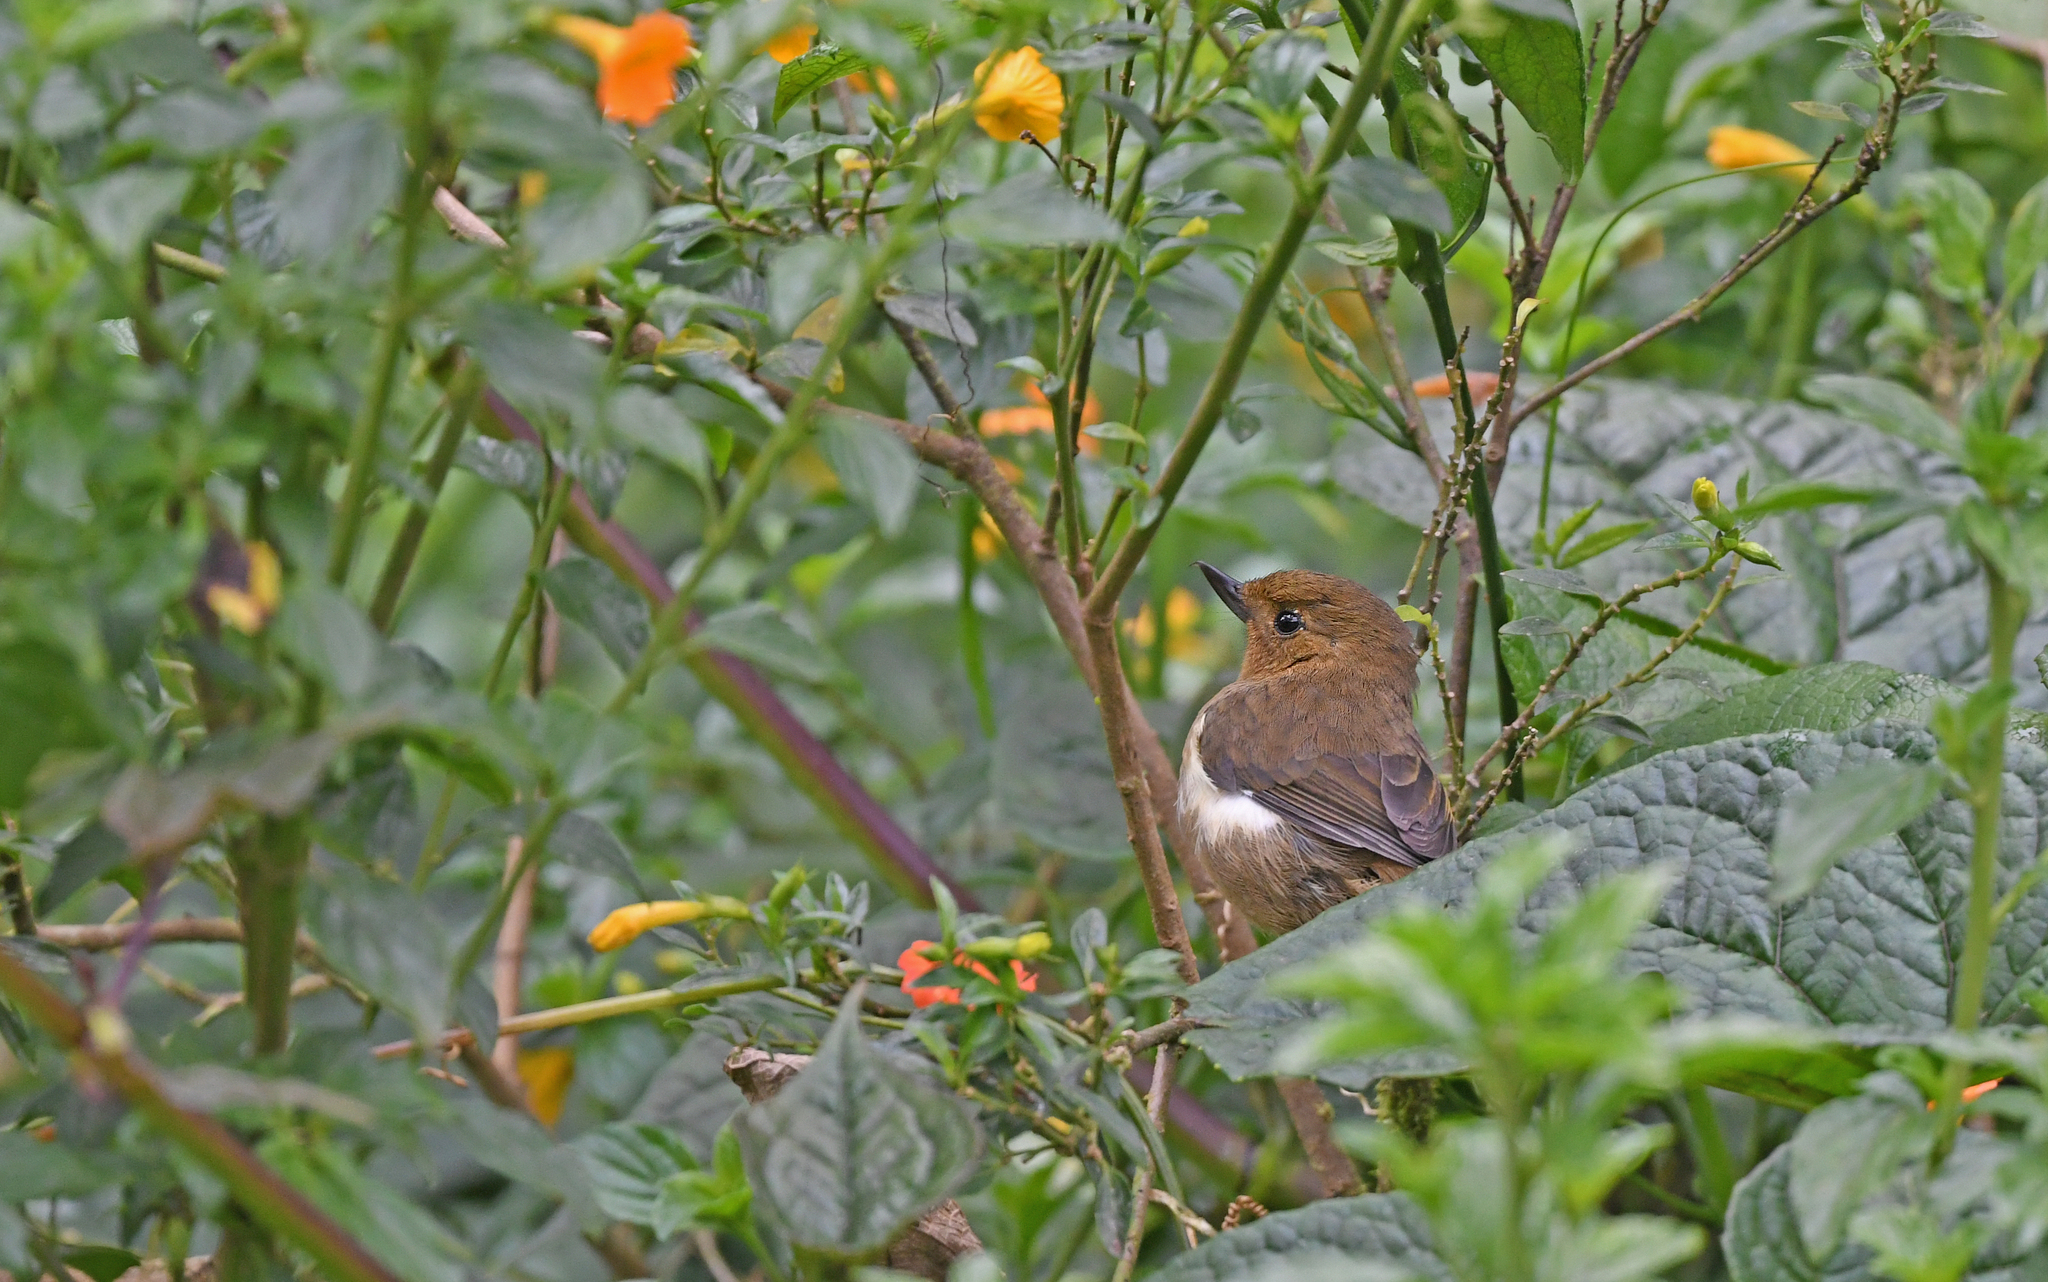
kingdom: Animalia
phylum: Chordata
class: Aves
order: Passeriformes
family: Thraupidae
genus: Diglossa
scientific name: Diglossa albilatera
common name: White-sided flowerpiercer
